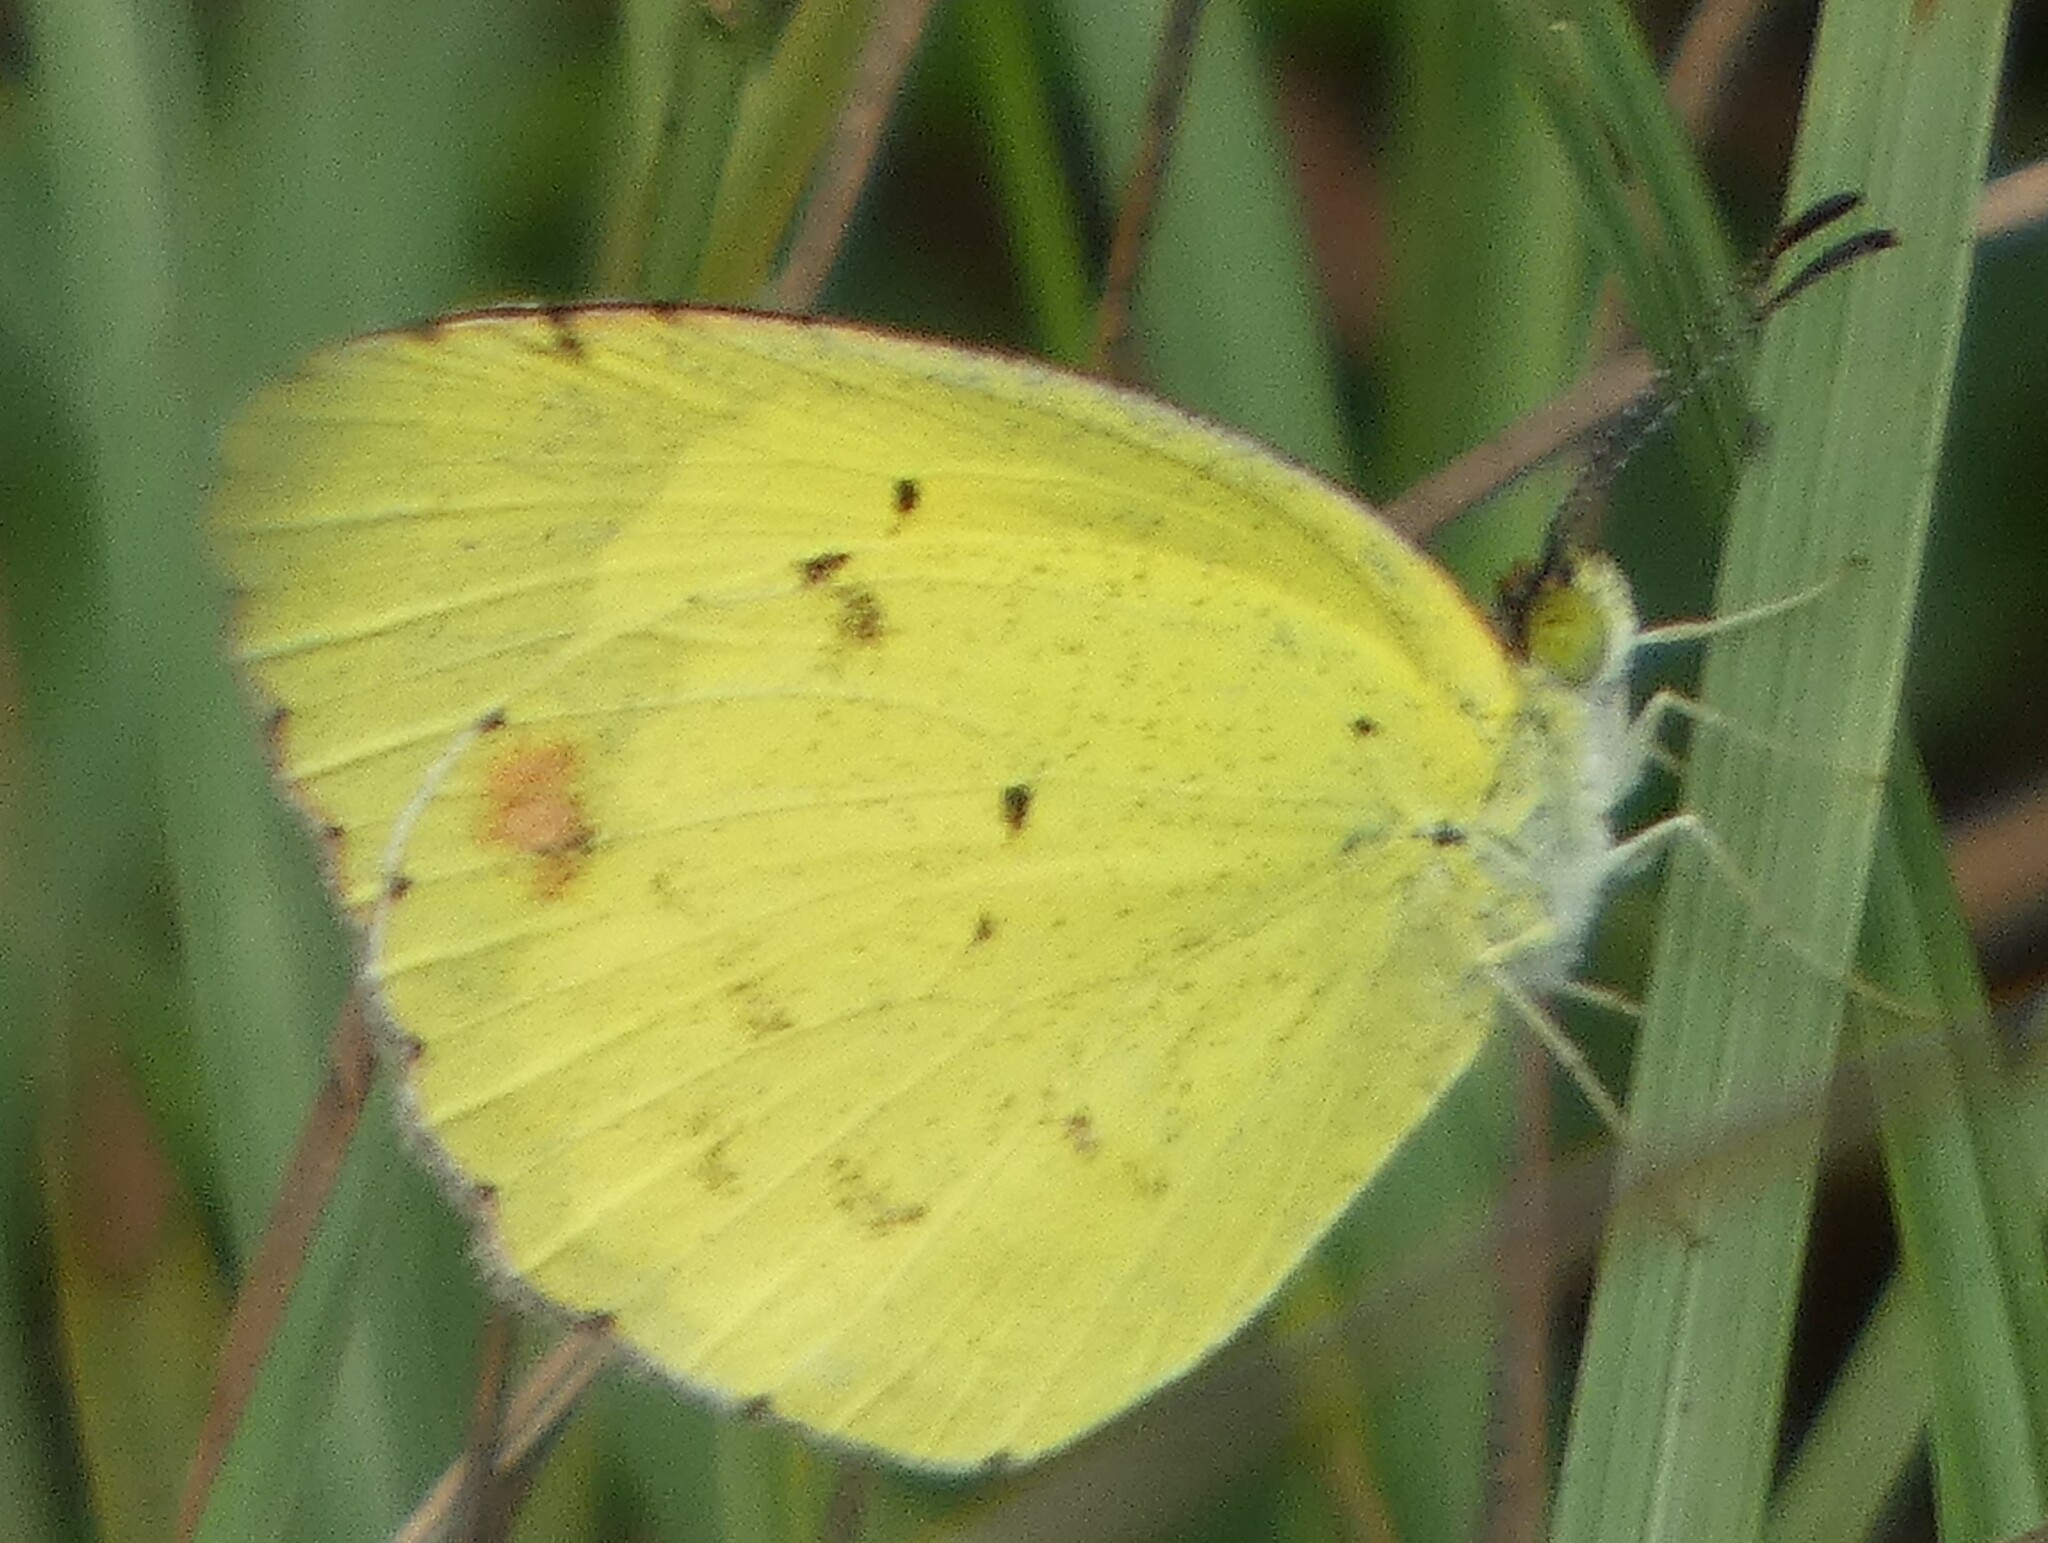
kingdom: Animalia
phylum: Arthropoda
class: Insecta
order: Lepidoptera
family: Pieridae
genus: Pyrisitia
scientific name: Pyrisitia lisa
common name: Little yellow
